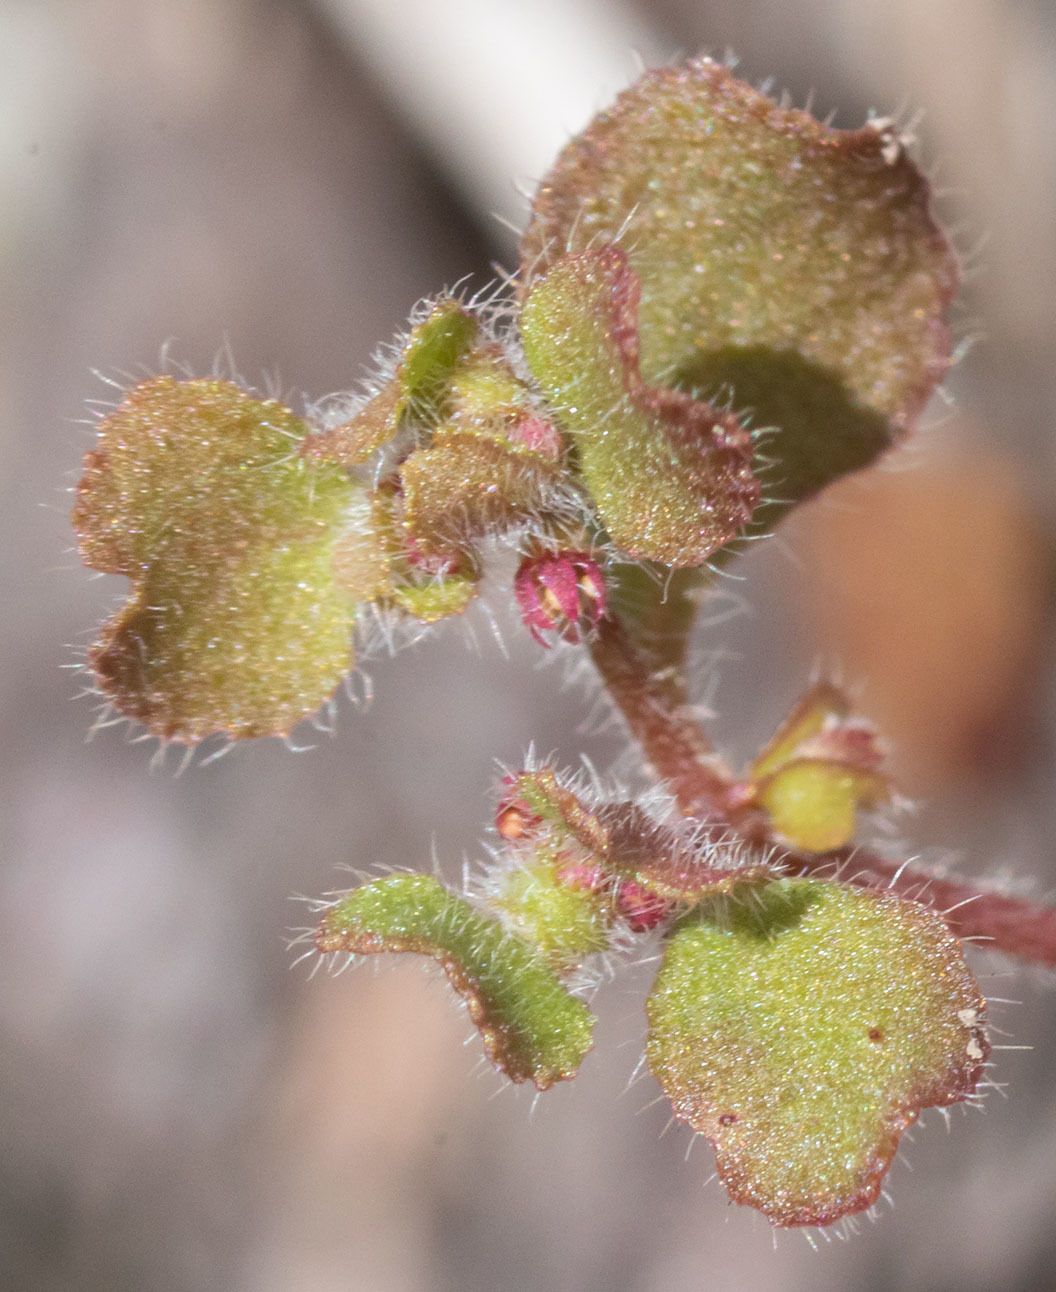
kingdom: Plantae
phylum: Tracheophyta
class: Magnoliopsida
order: Caryophyllales
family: Polygonaceae
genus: Pterostegia
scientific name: Pterostegia drymarioides
